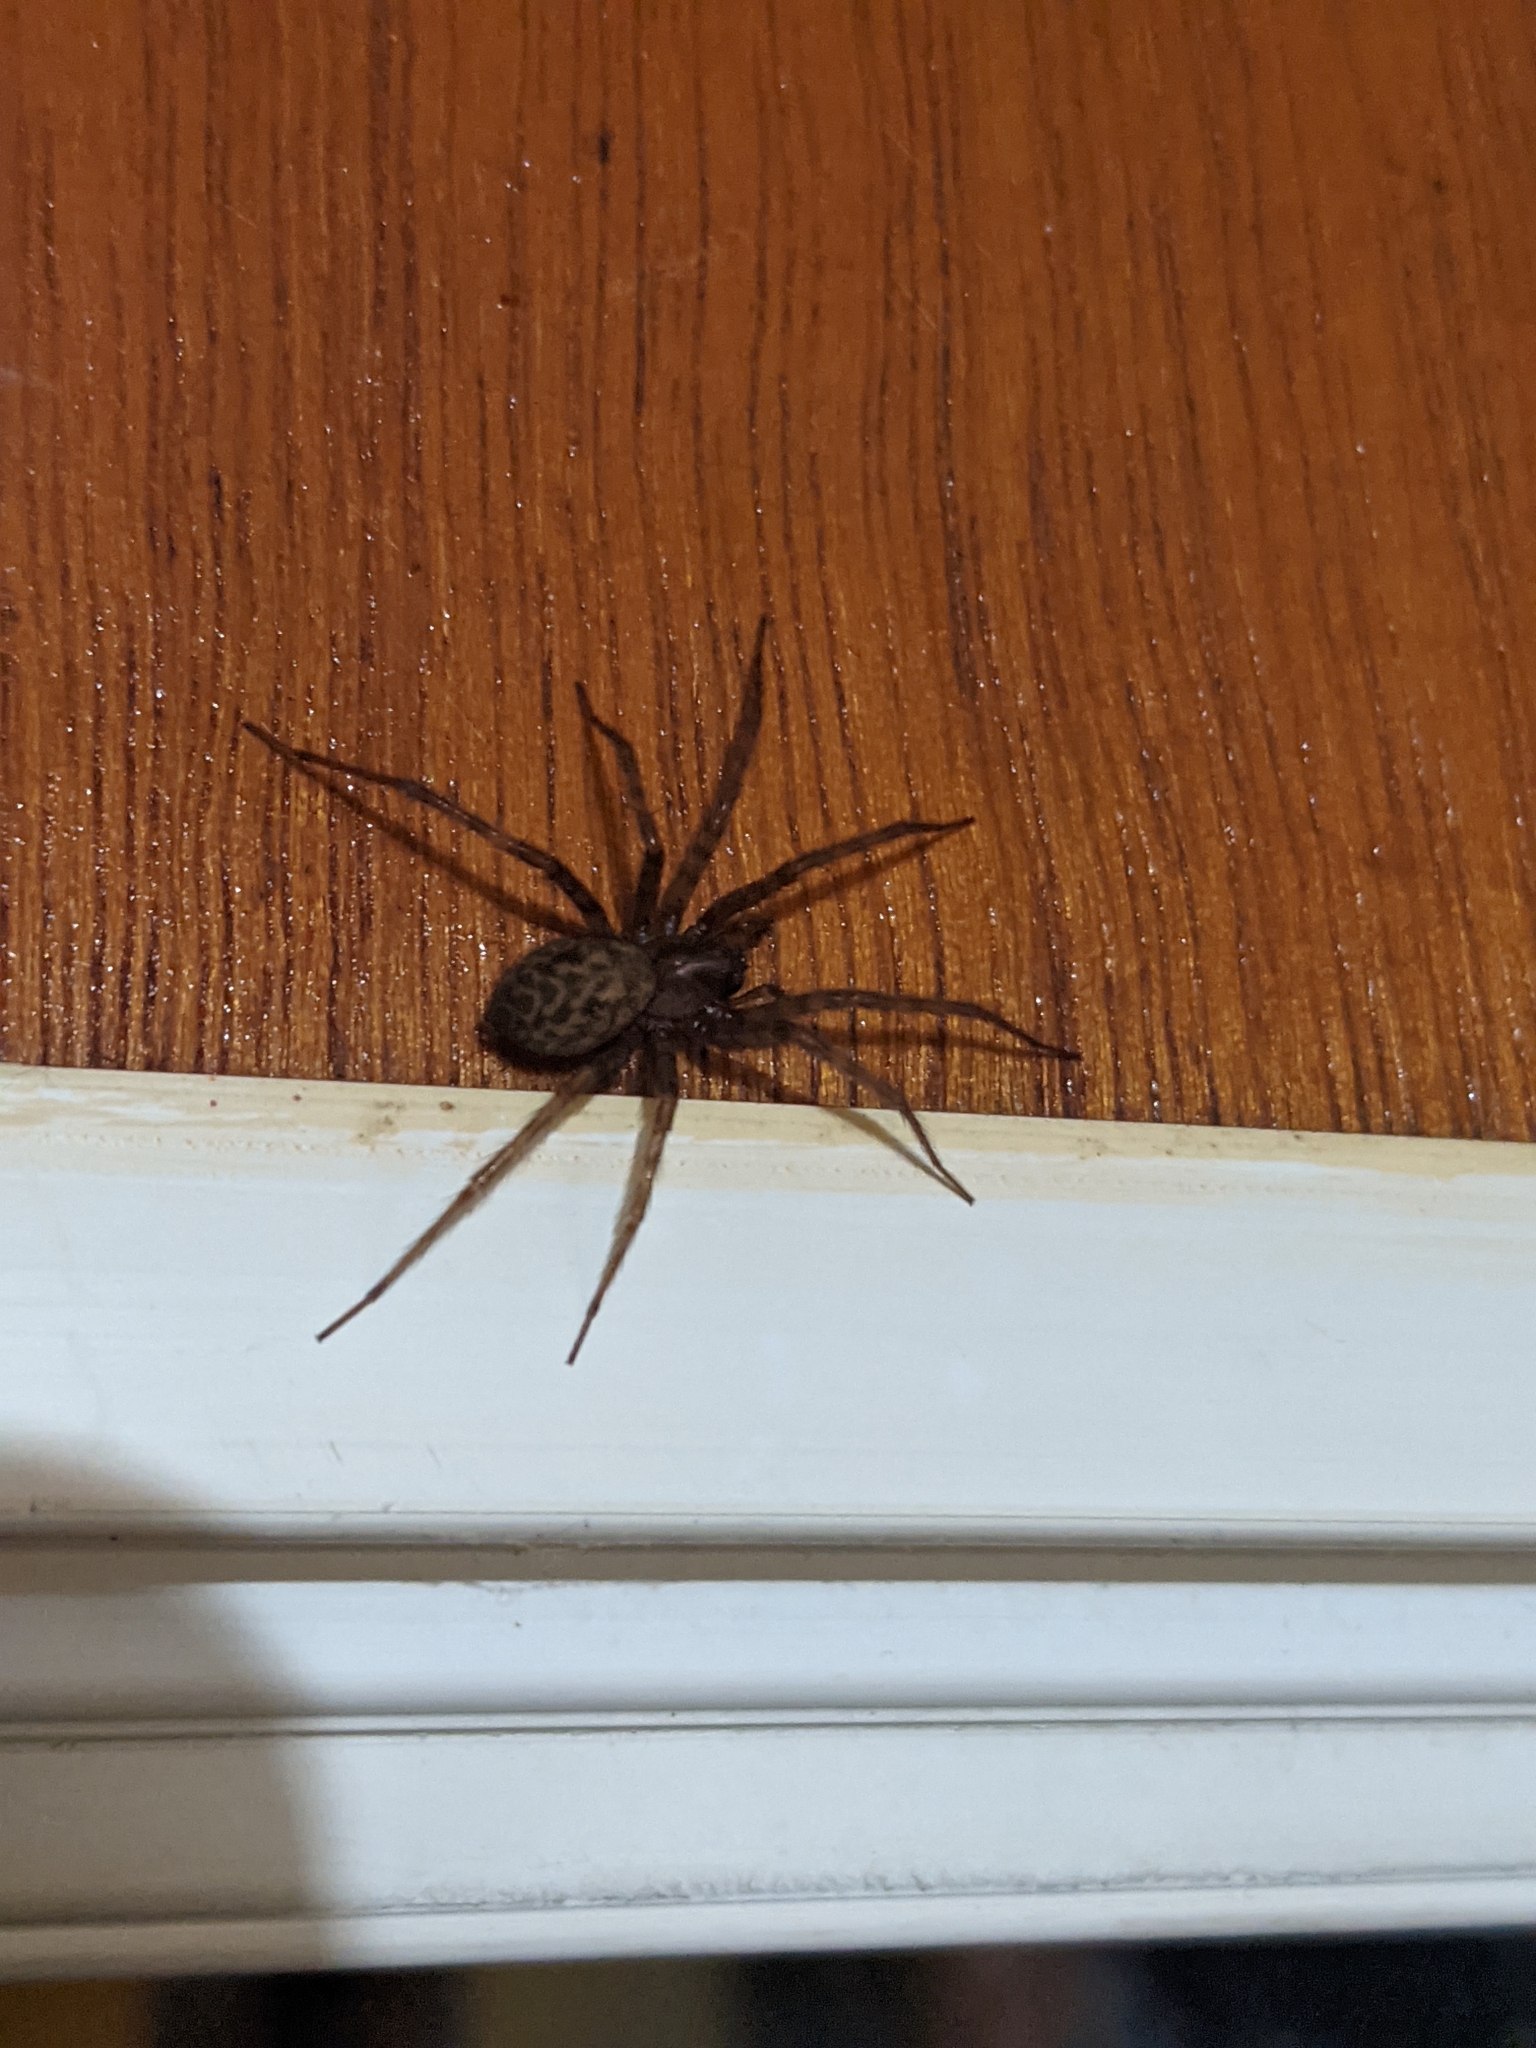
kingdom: Animalia
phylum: Arthropoda
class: Arachnida
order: Araneae
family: Agelenidae
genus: Tegenaria
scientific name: Tegenaria domestica
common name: Barn funnel weaver
